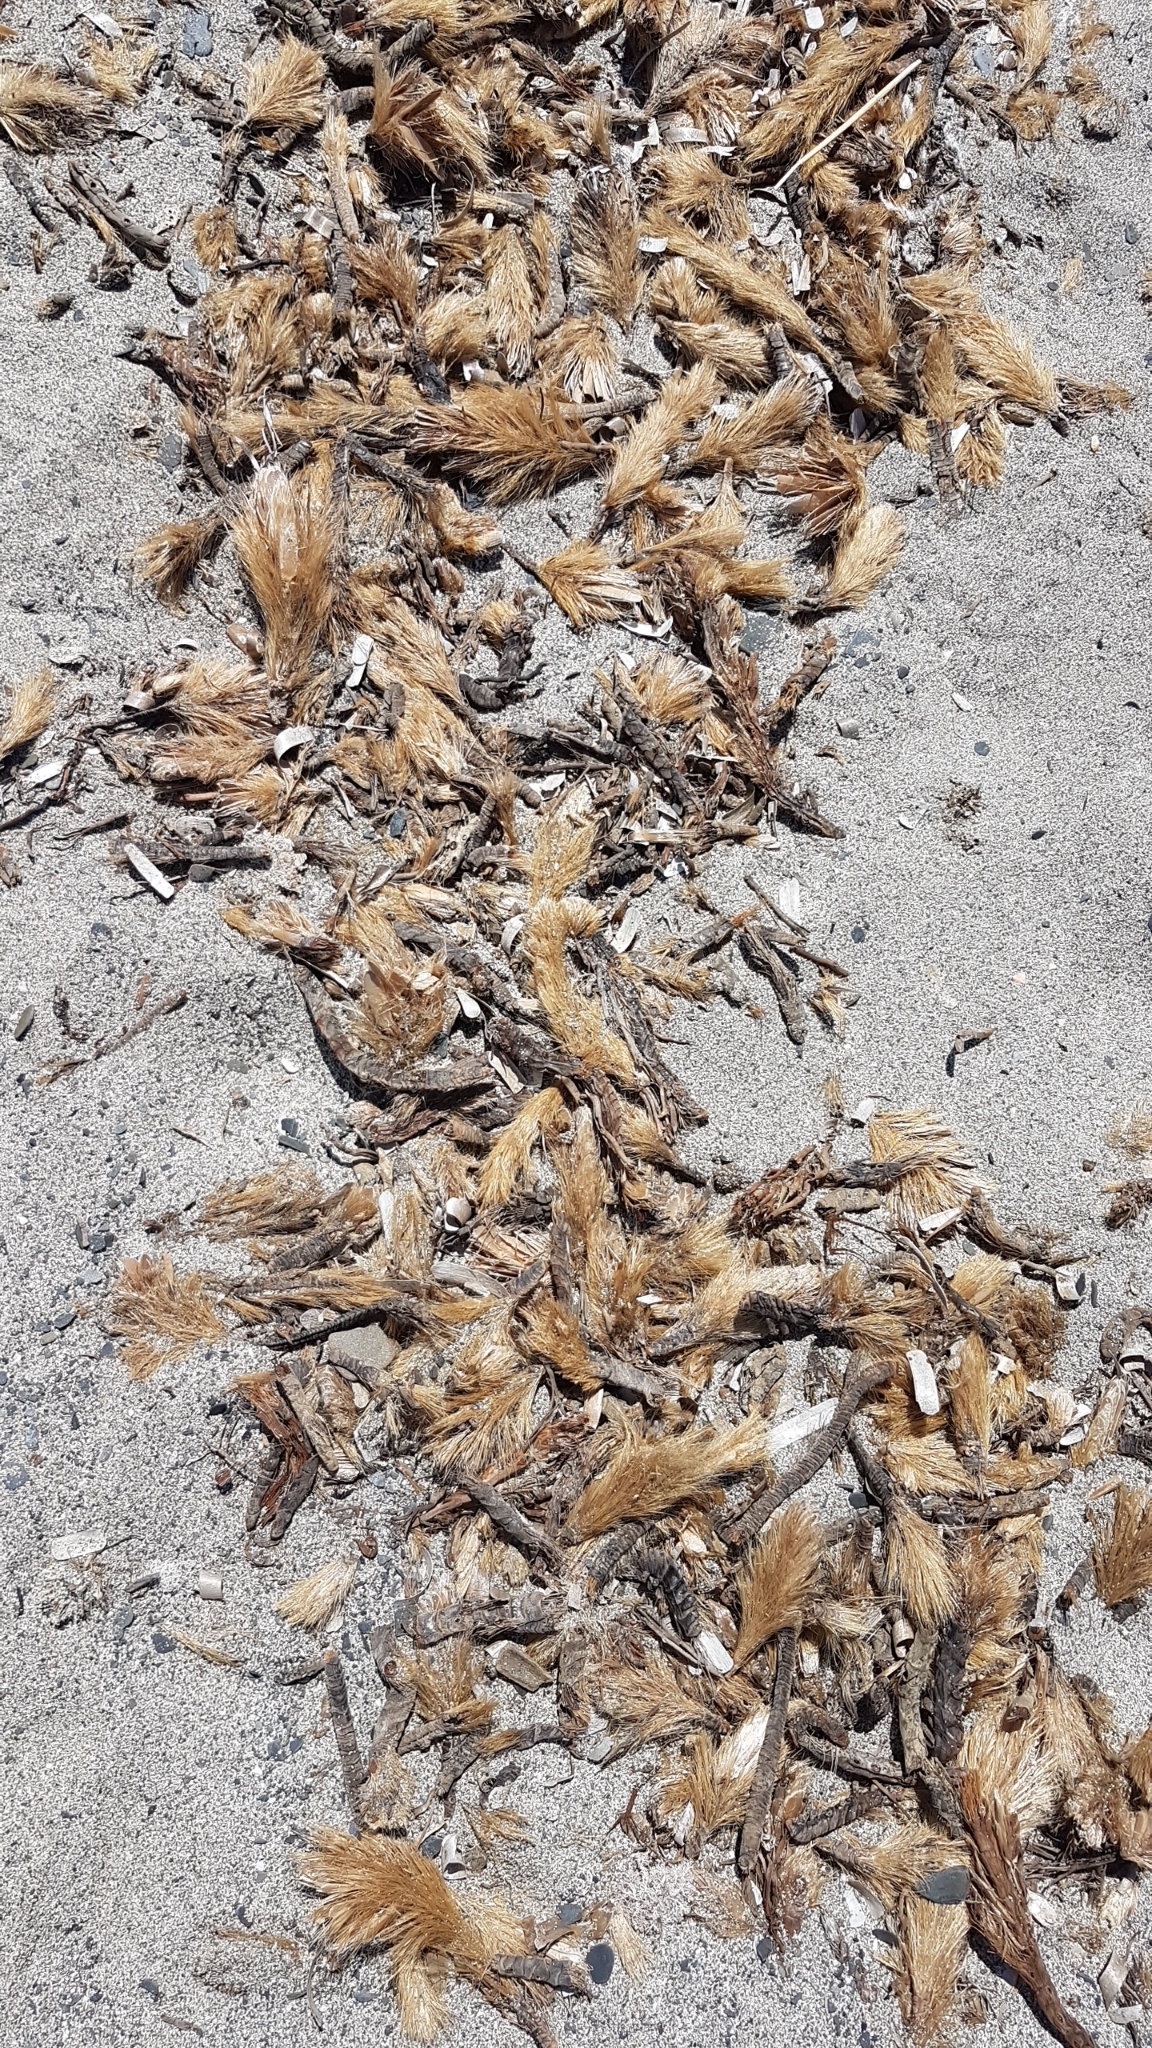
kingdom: Plantae
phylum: Tracheophyta
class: Liliopsida
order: Alismatales
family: Posidoniaceae
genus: Posidonia
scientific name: Posidonia oceanica
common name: Mediterranean tapeweed
